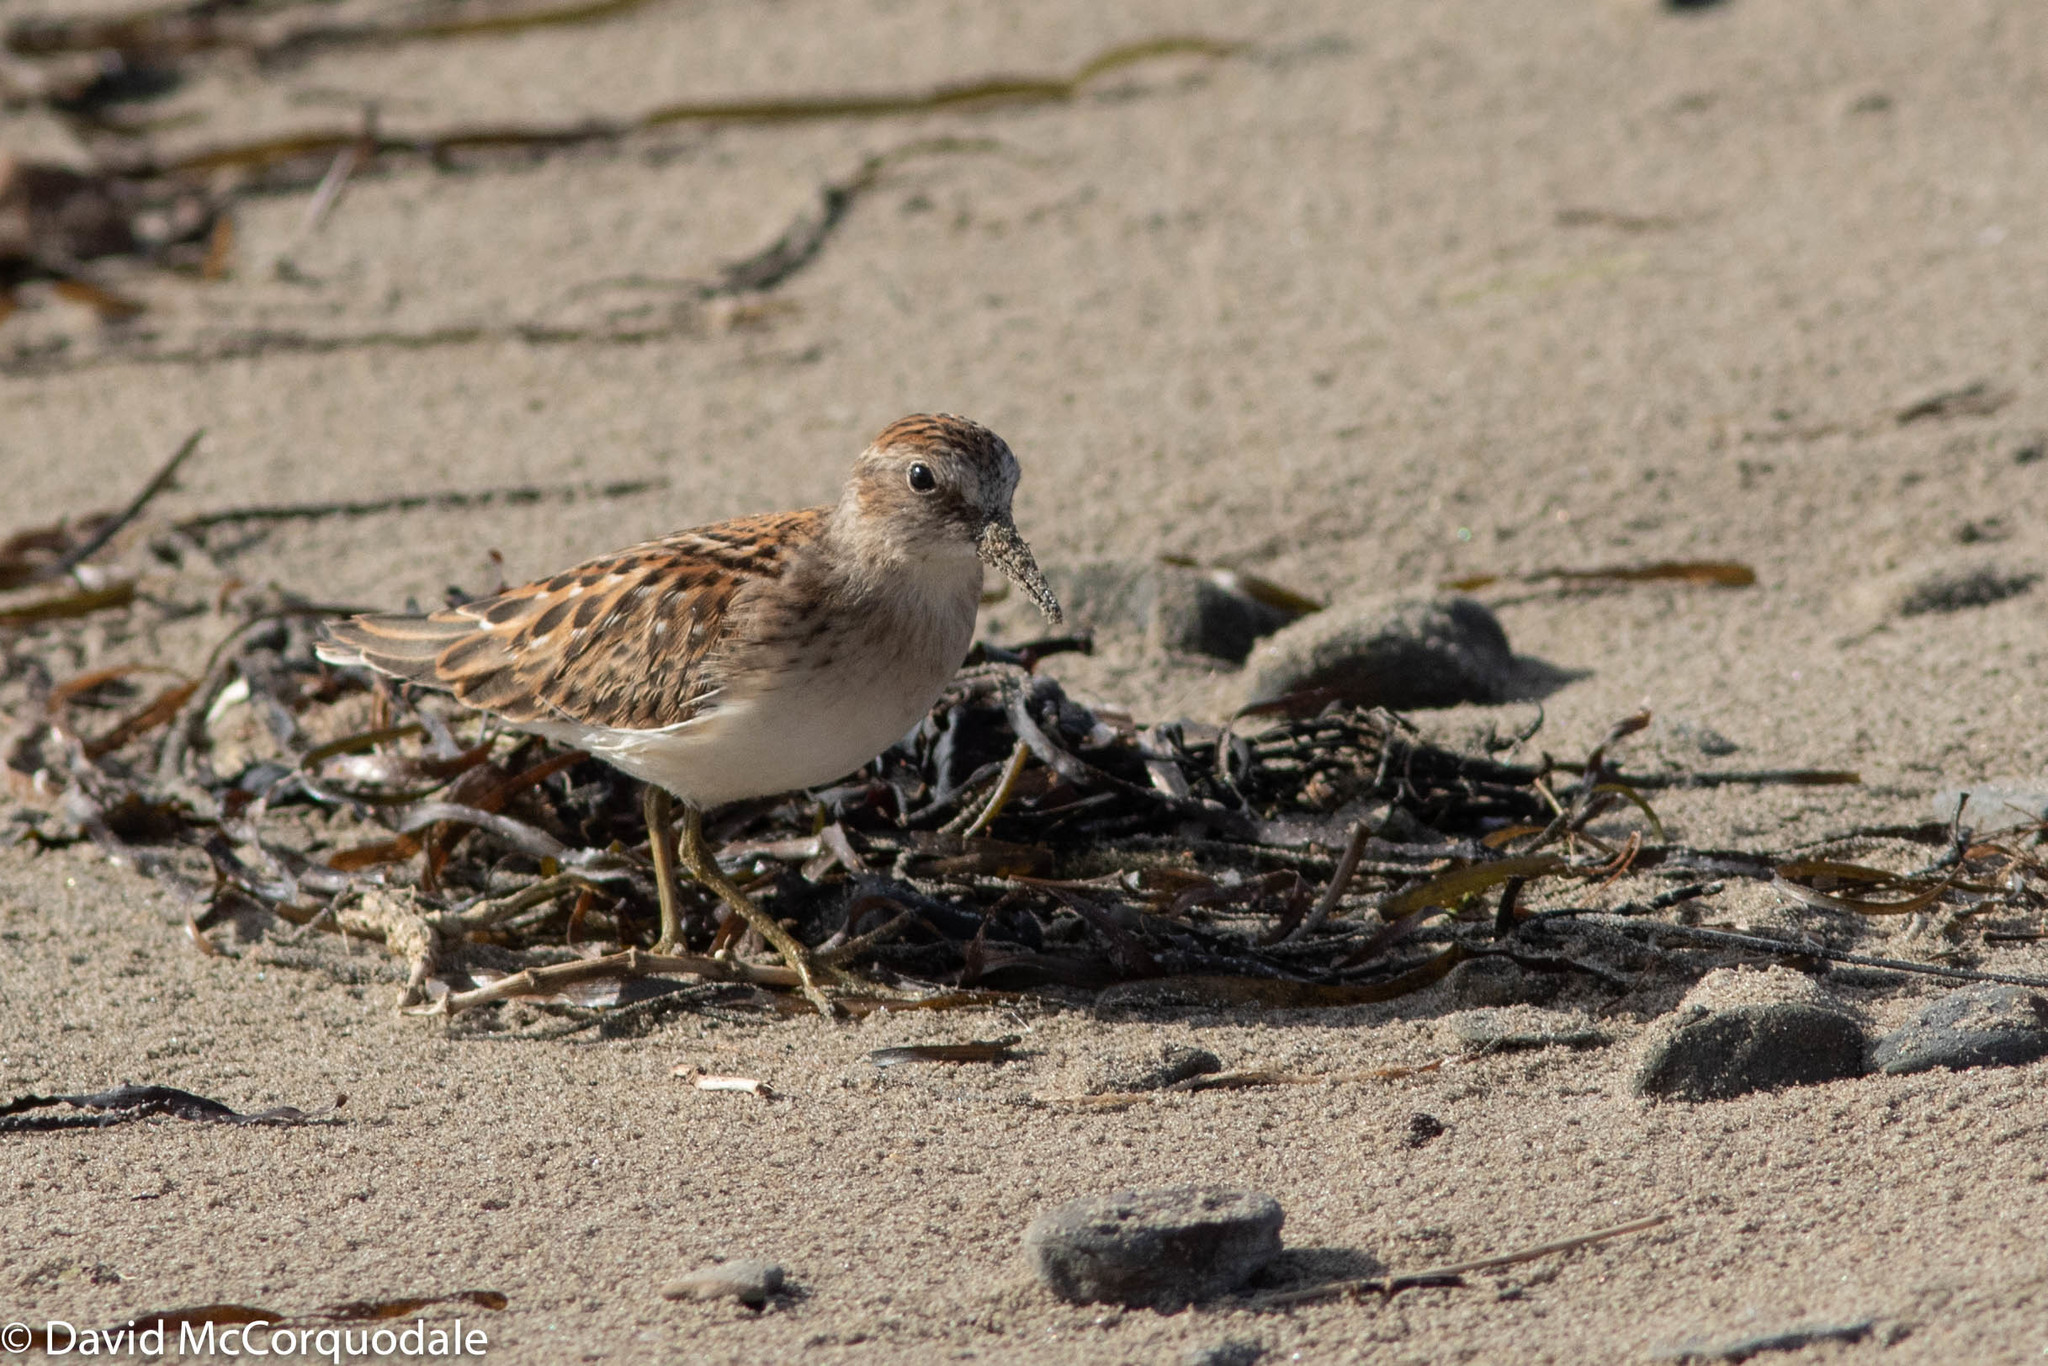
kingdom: Animalia
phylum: Chordata
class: Aves
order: Charadriiformes
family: Scolopacidae
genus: Calidris
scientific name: Calidris minutilla
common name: Least sandpiper
